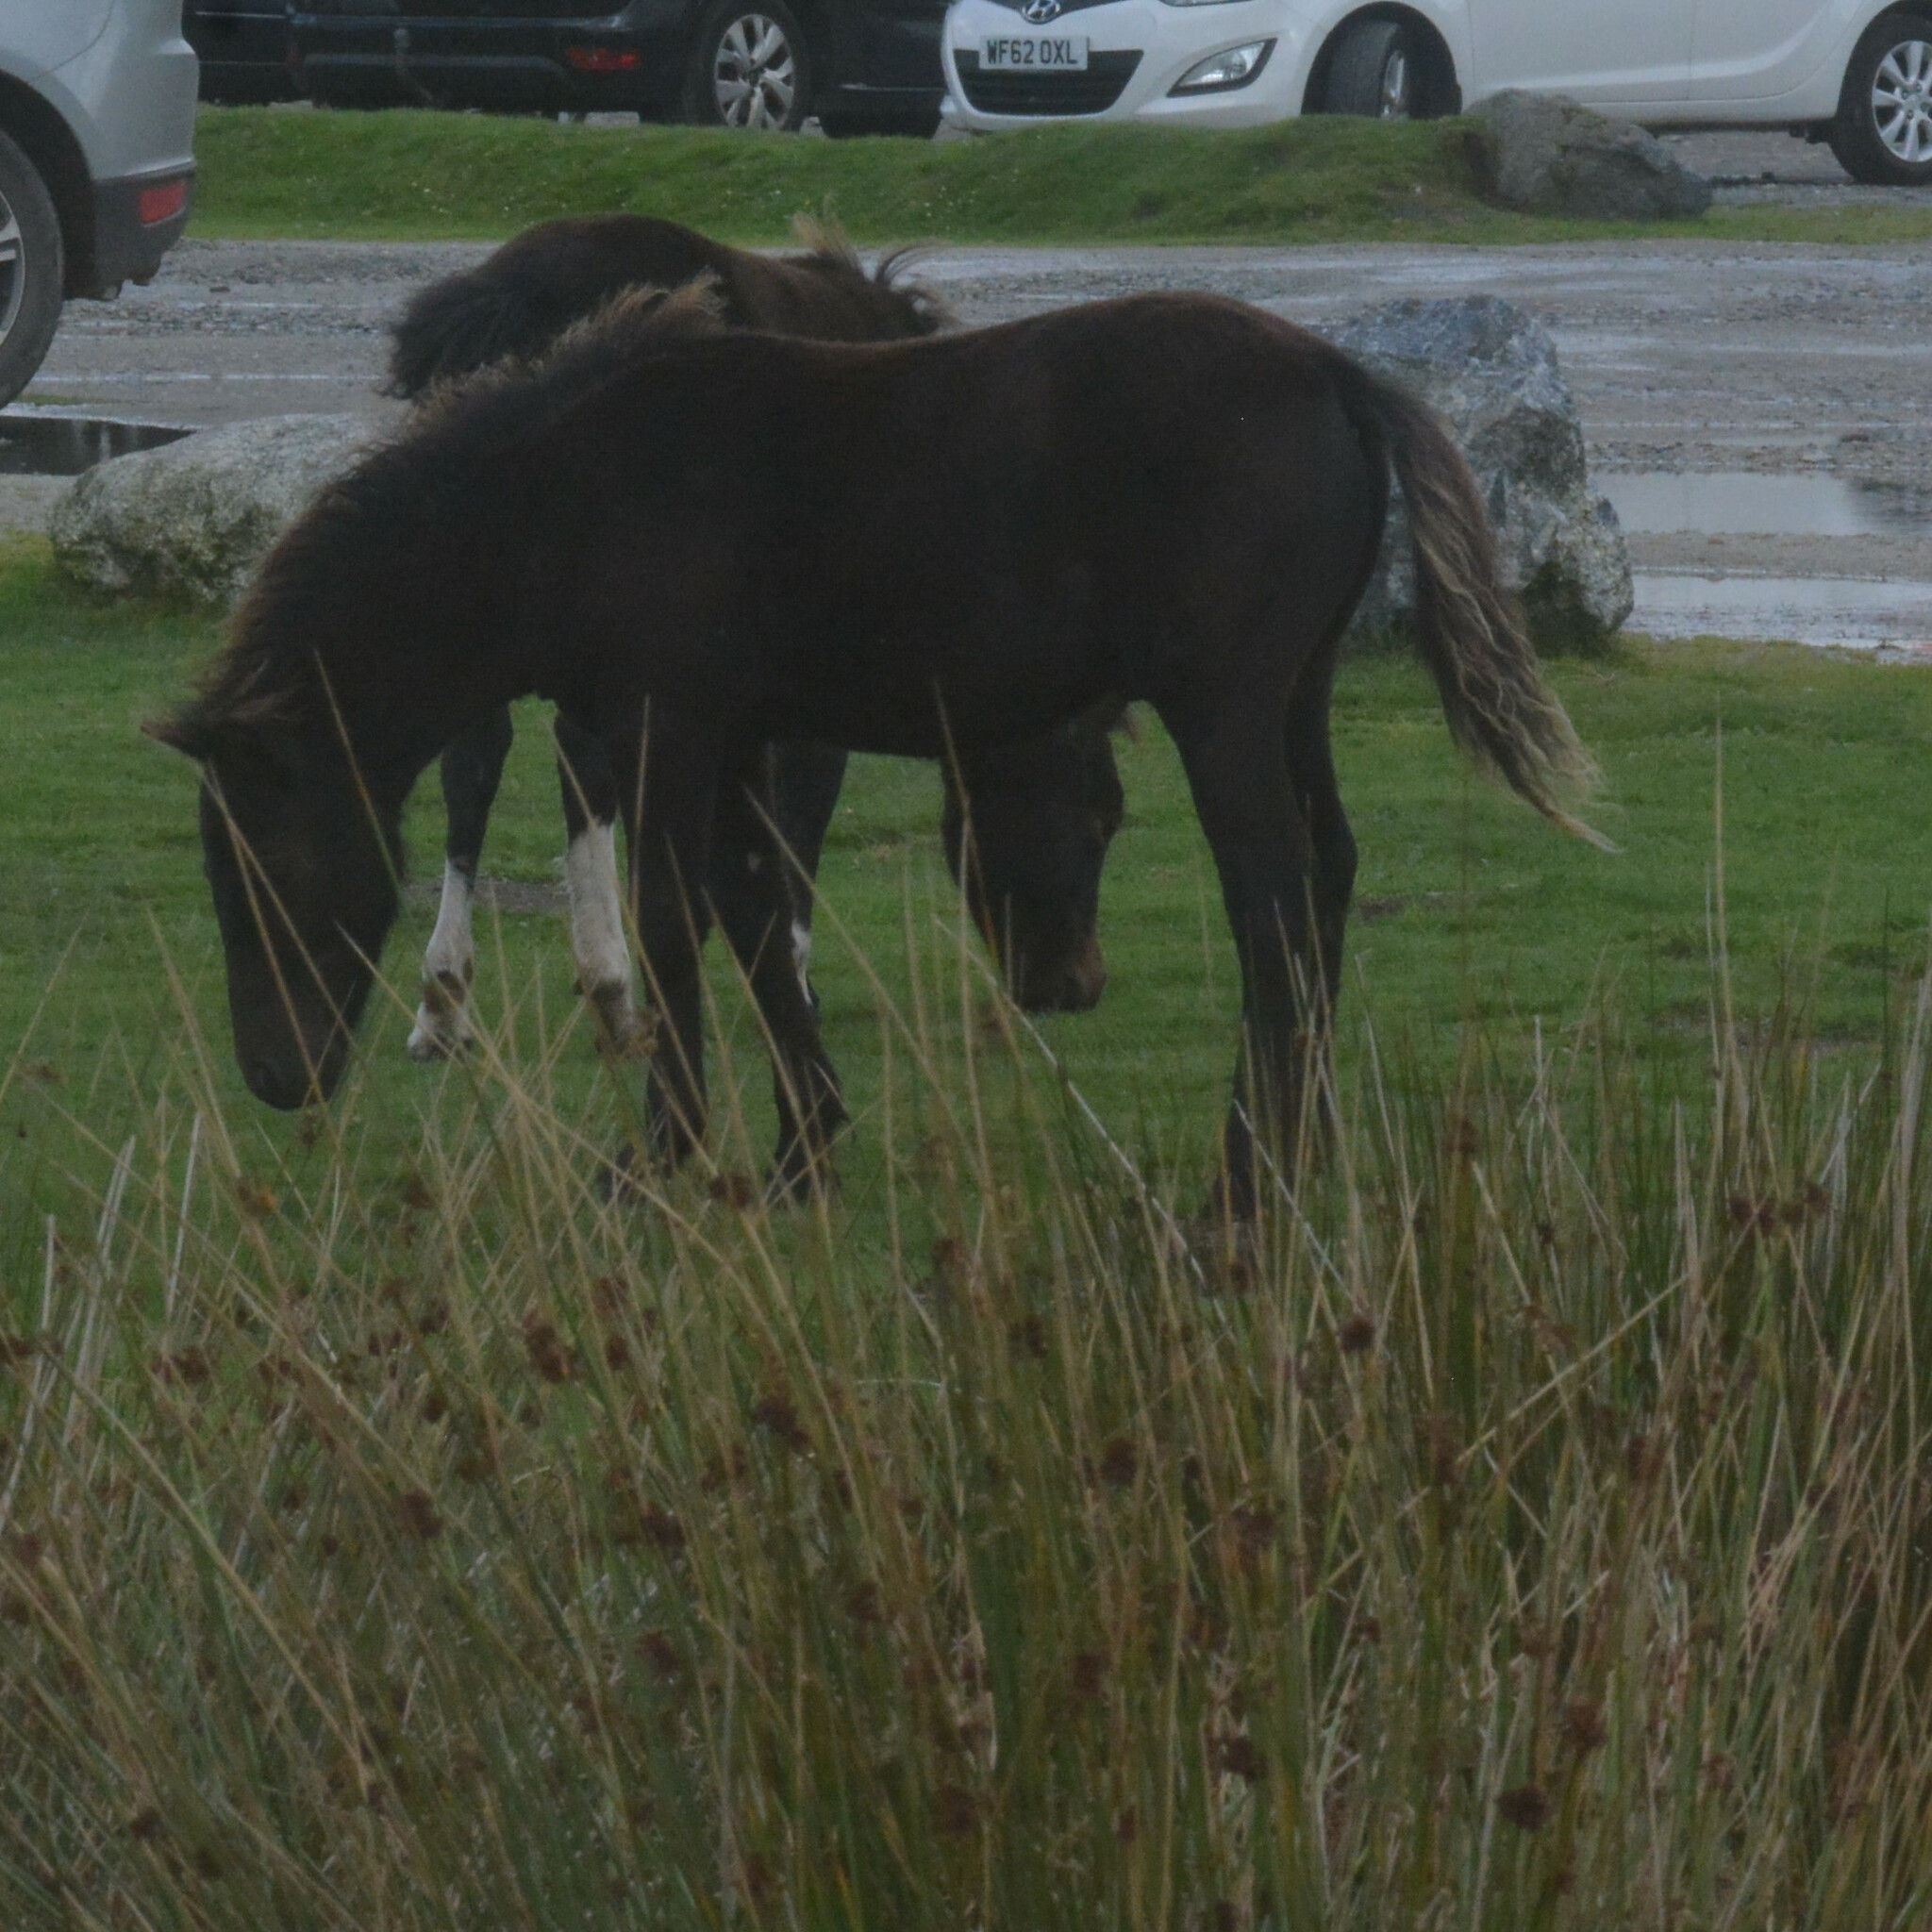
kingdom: Animalia
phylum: Chordata
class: Mammalia
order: Perissodactyla
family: Equidae
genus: Equus
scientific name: Equus caballus
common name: Horse
